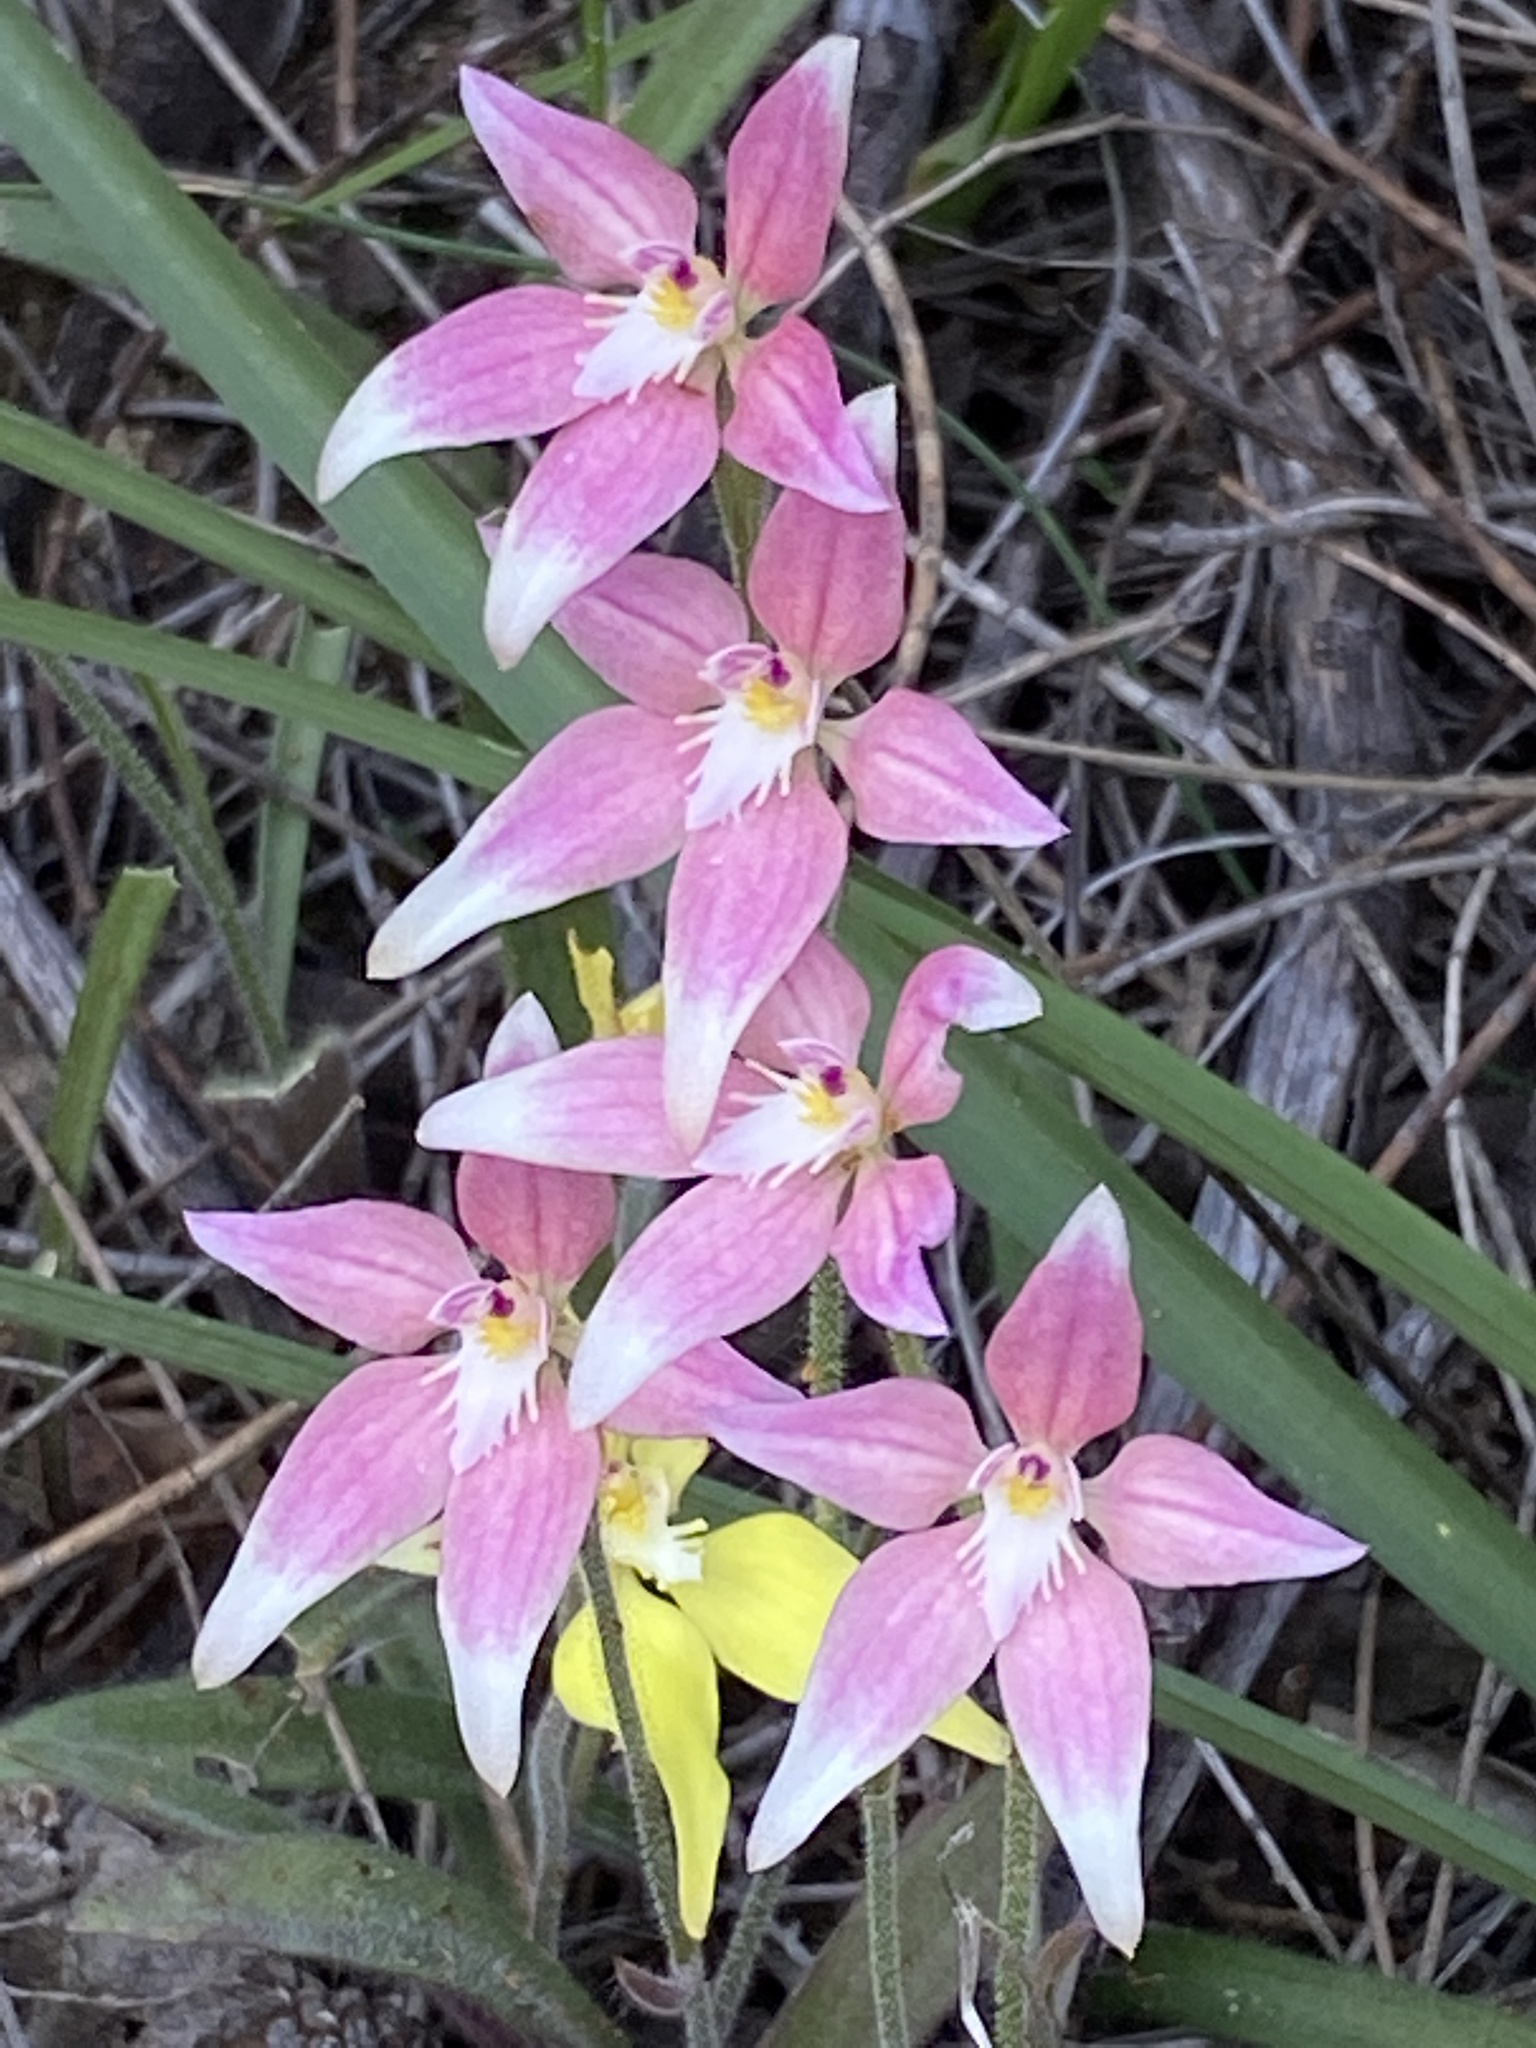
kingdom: Plantae
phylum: Tracheophyta
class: Liliopsida
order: Asparagales
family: Orchidaceae
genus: Caladenia
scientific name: Caladenia
